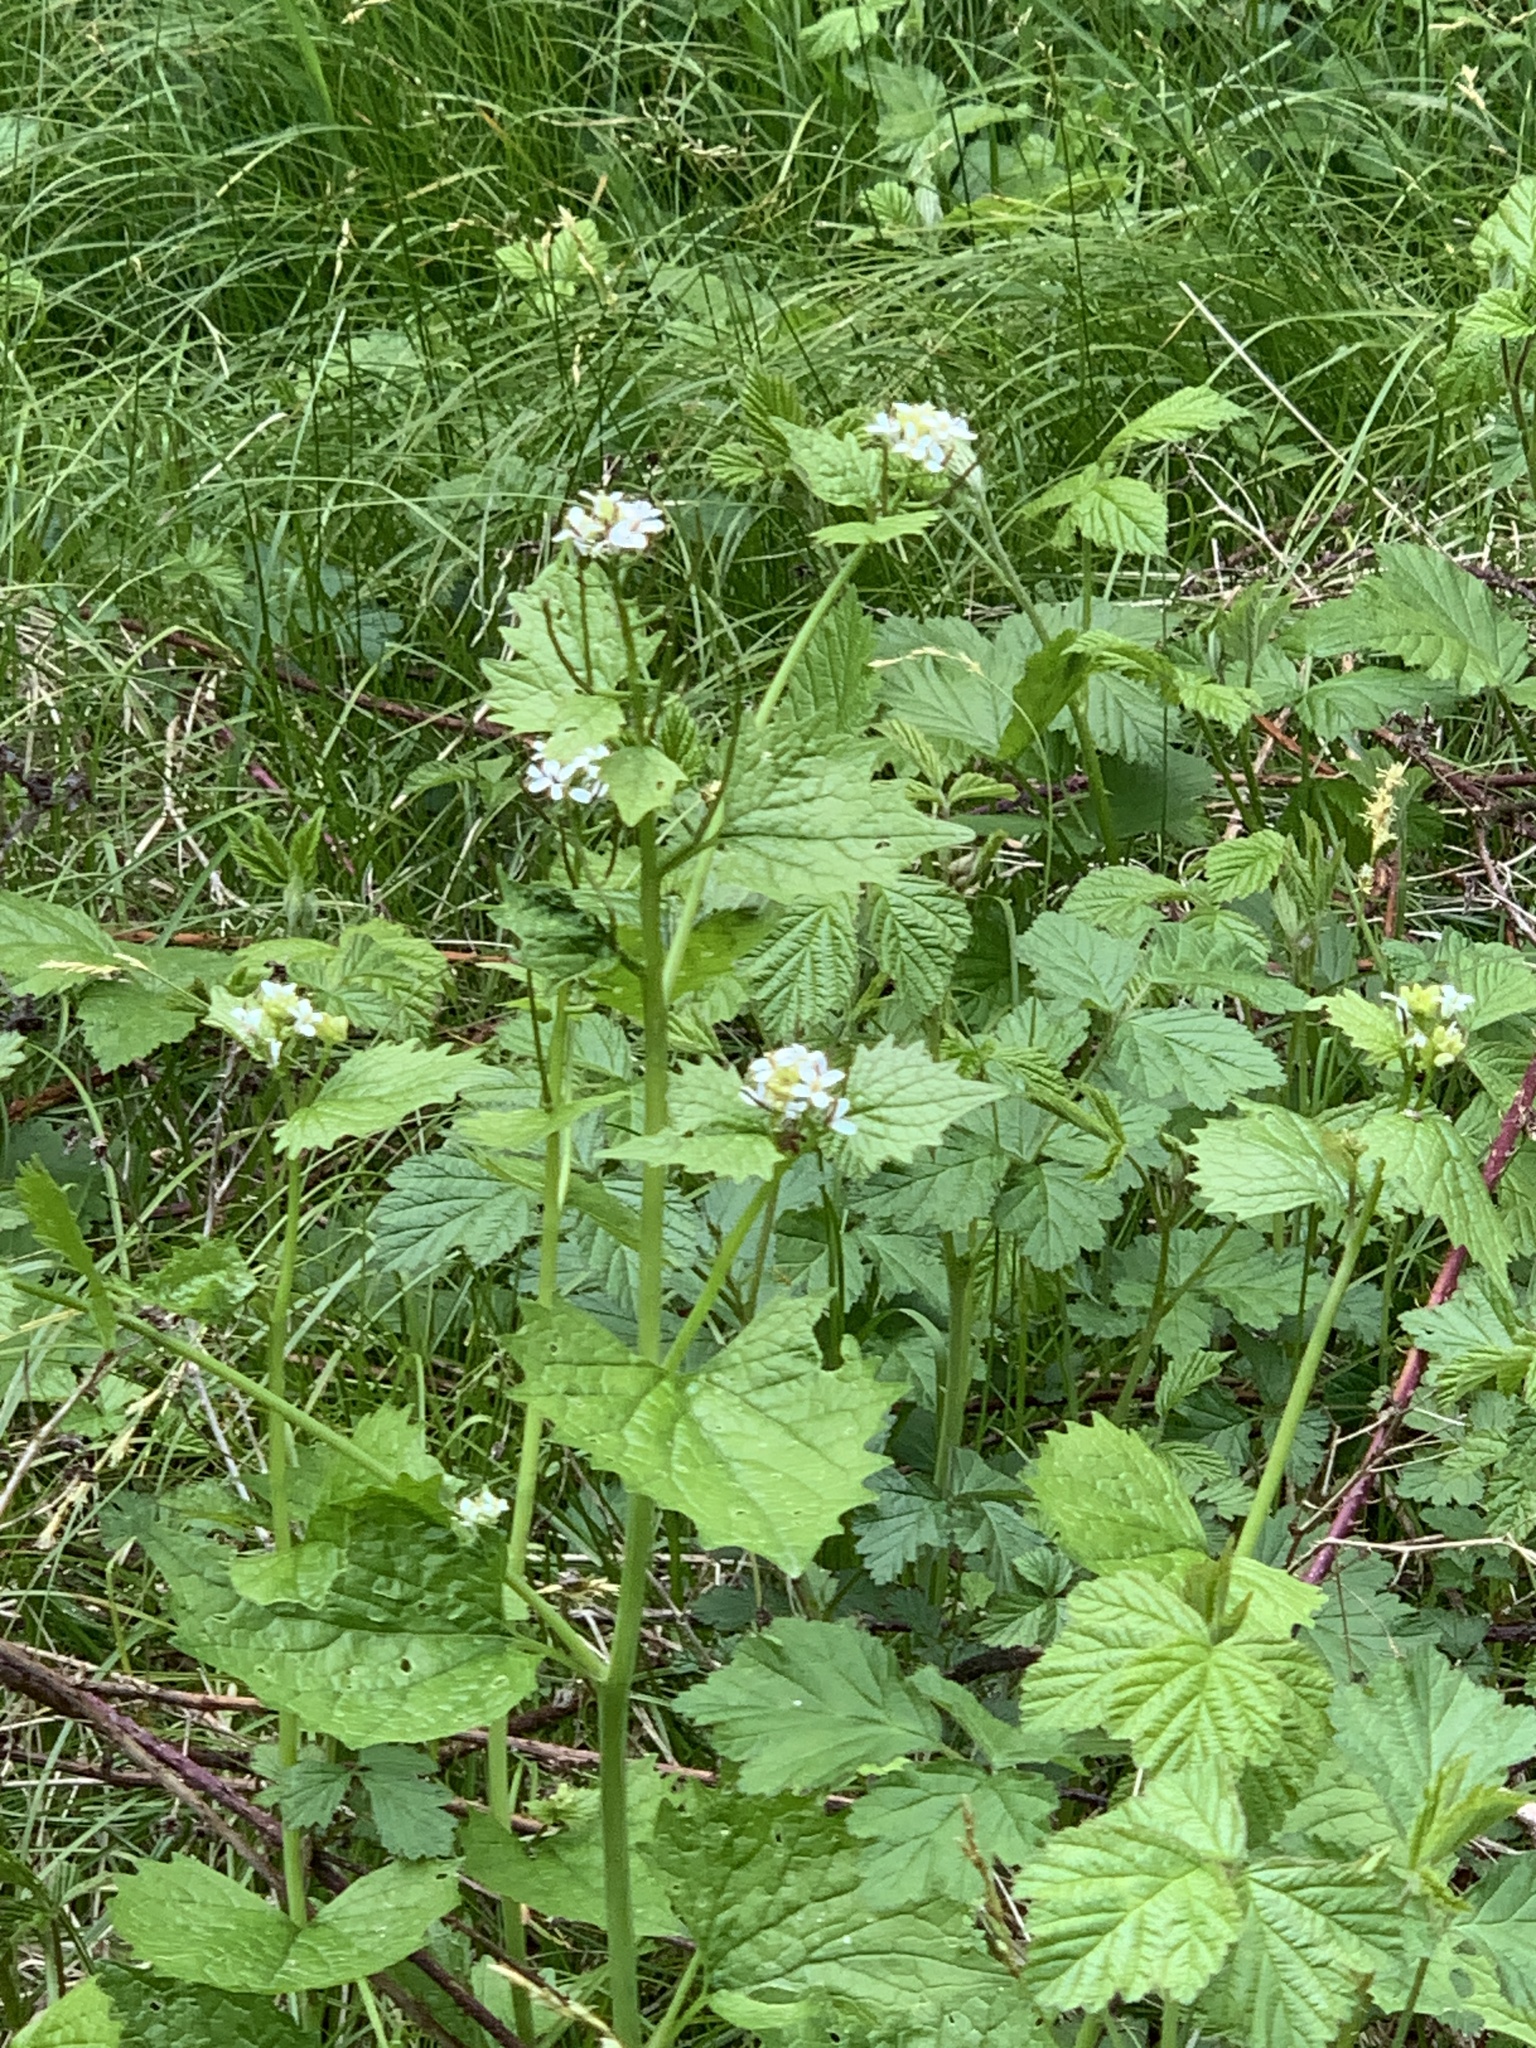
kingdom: Plantae
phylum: Tracheophyta
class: Magnoliopsida
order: Brassicales
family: Brassicaceae
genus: Alliaria
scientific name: Alliaria petiolata
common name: Garlic mustard
